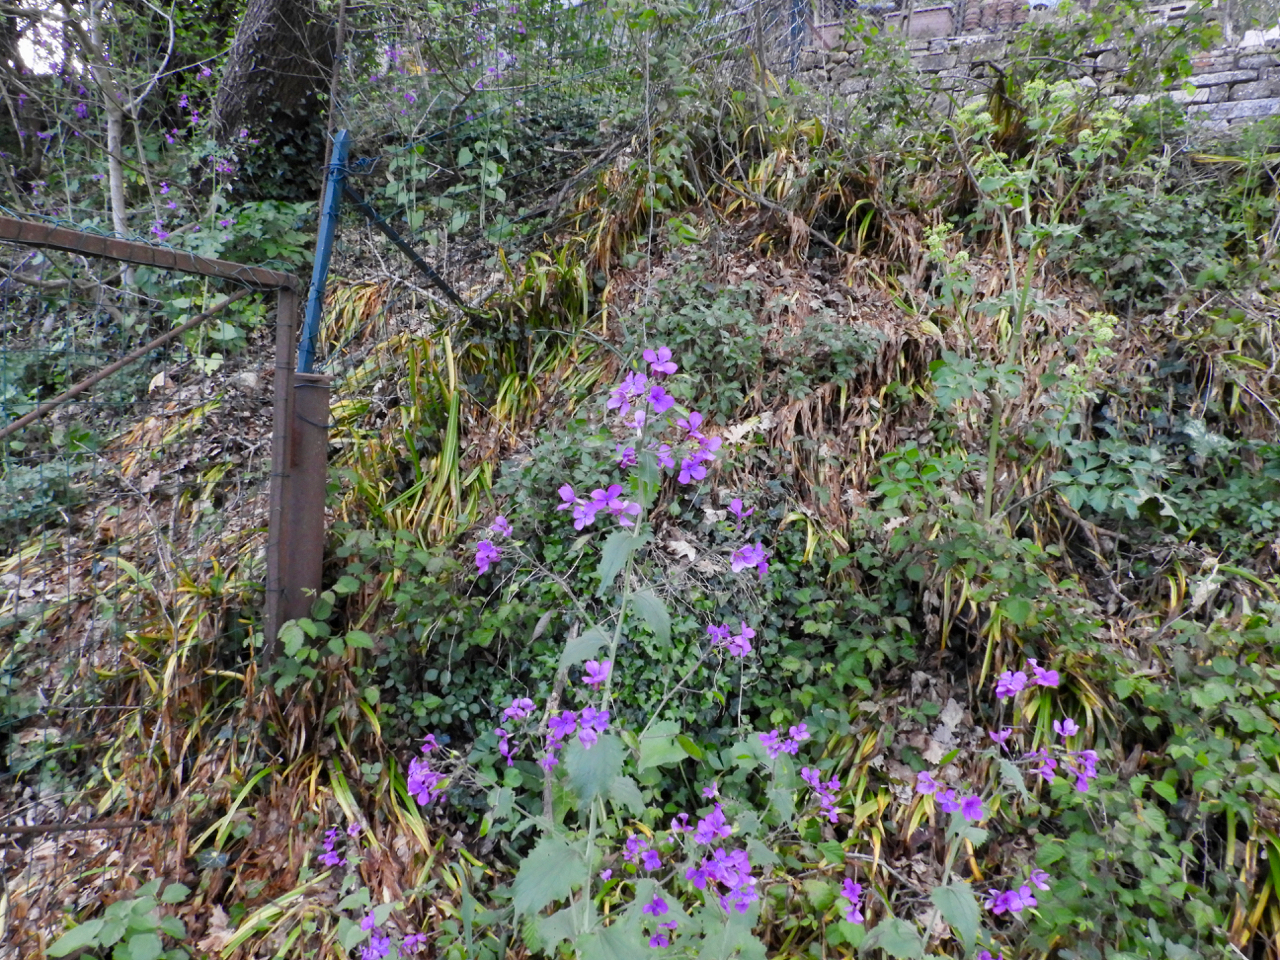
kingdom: Plantae
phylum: Tracheophyta
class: Magnoliopsida
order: Brassicales
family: Brassicaceae
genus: Lunaria
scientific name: Lunaria annua
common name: Honesty
